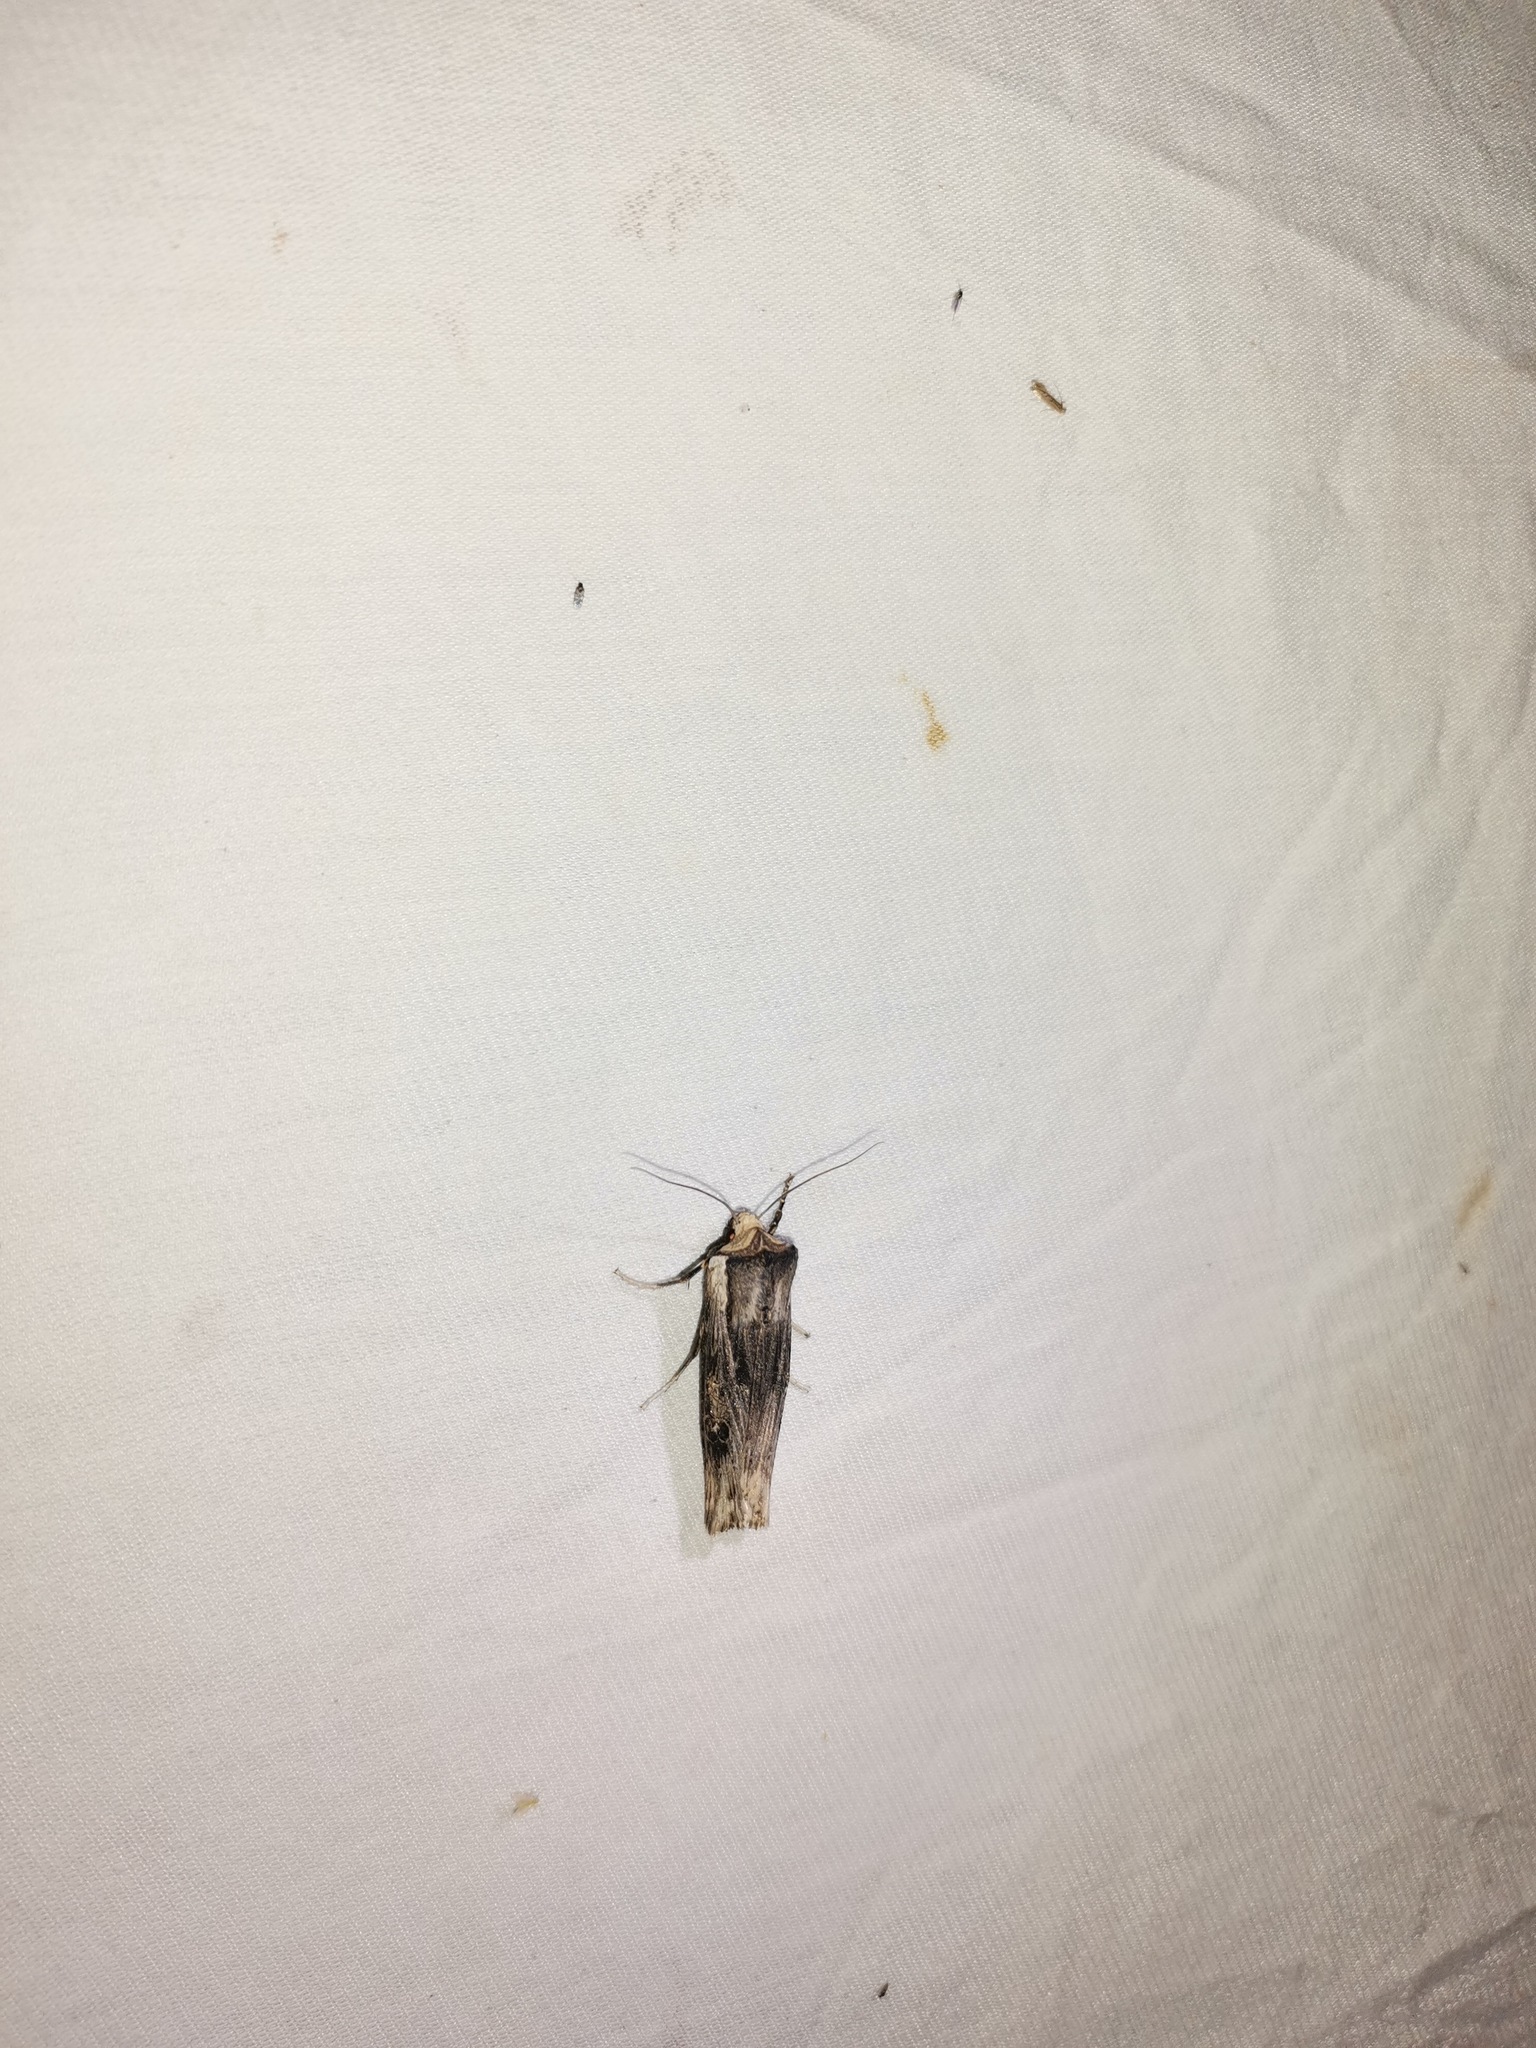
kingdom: Animalia
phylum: Arthropoda
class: Insecta
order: Lepidoptera
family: Noctuidae
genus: Xylena
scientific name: Xylena exsoleta
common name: Sword-grass
